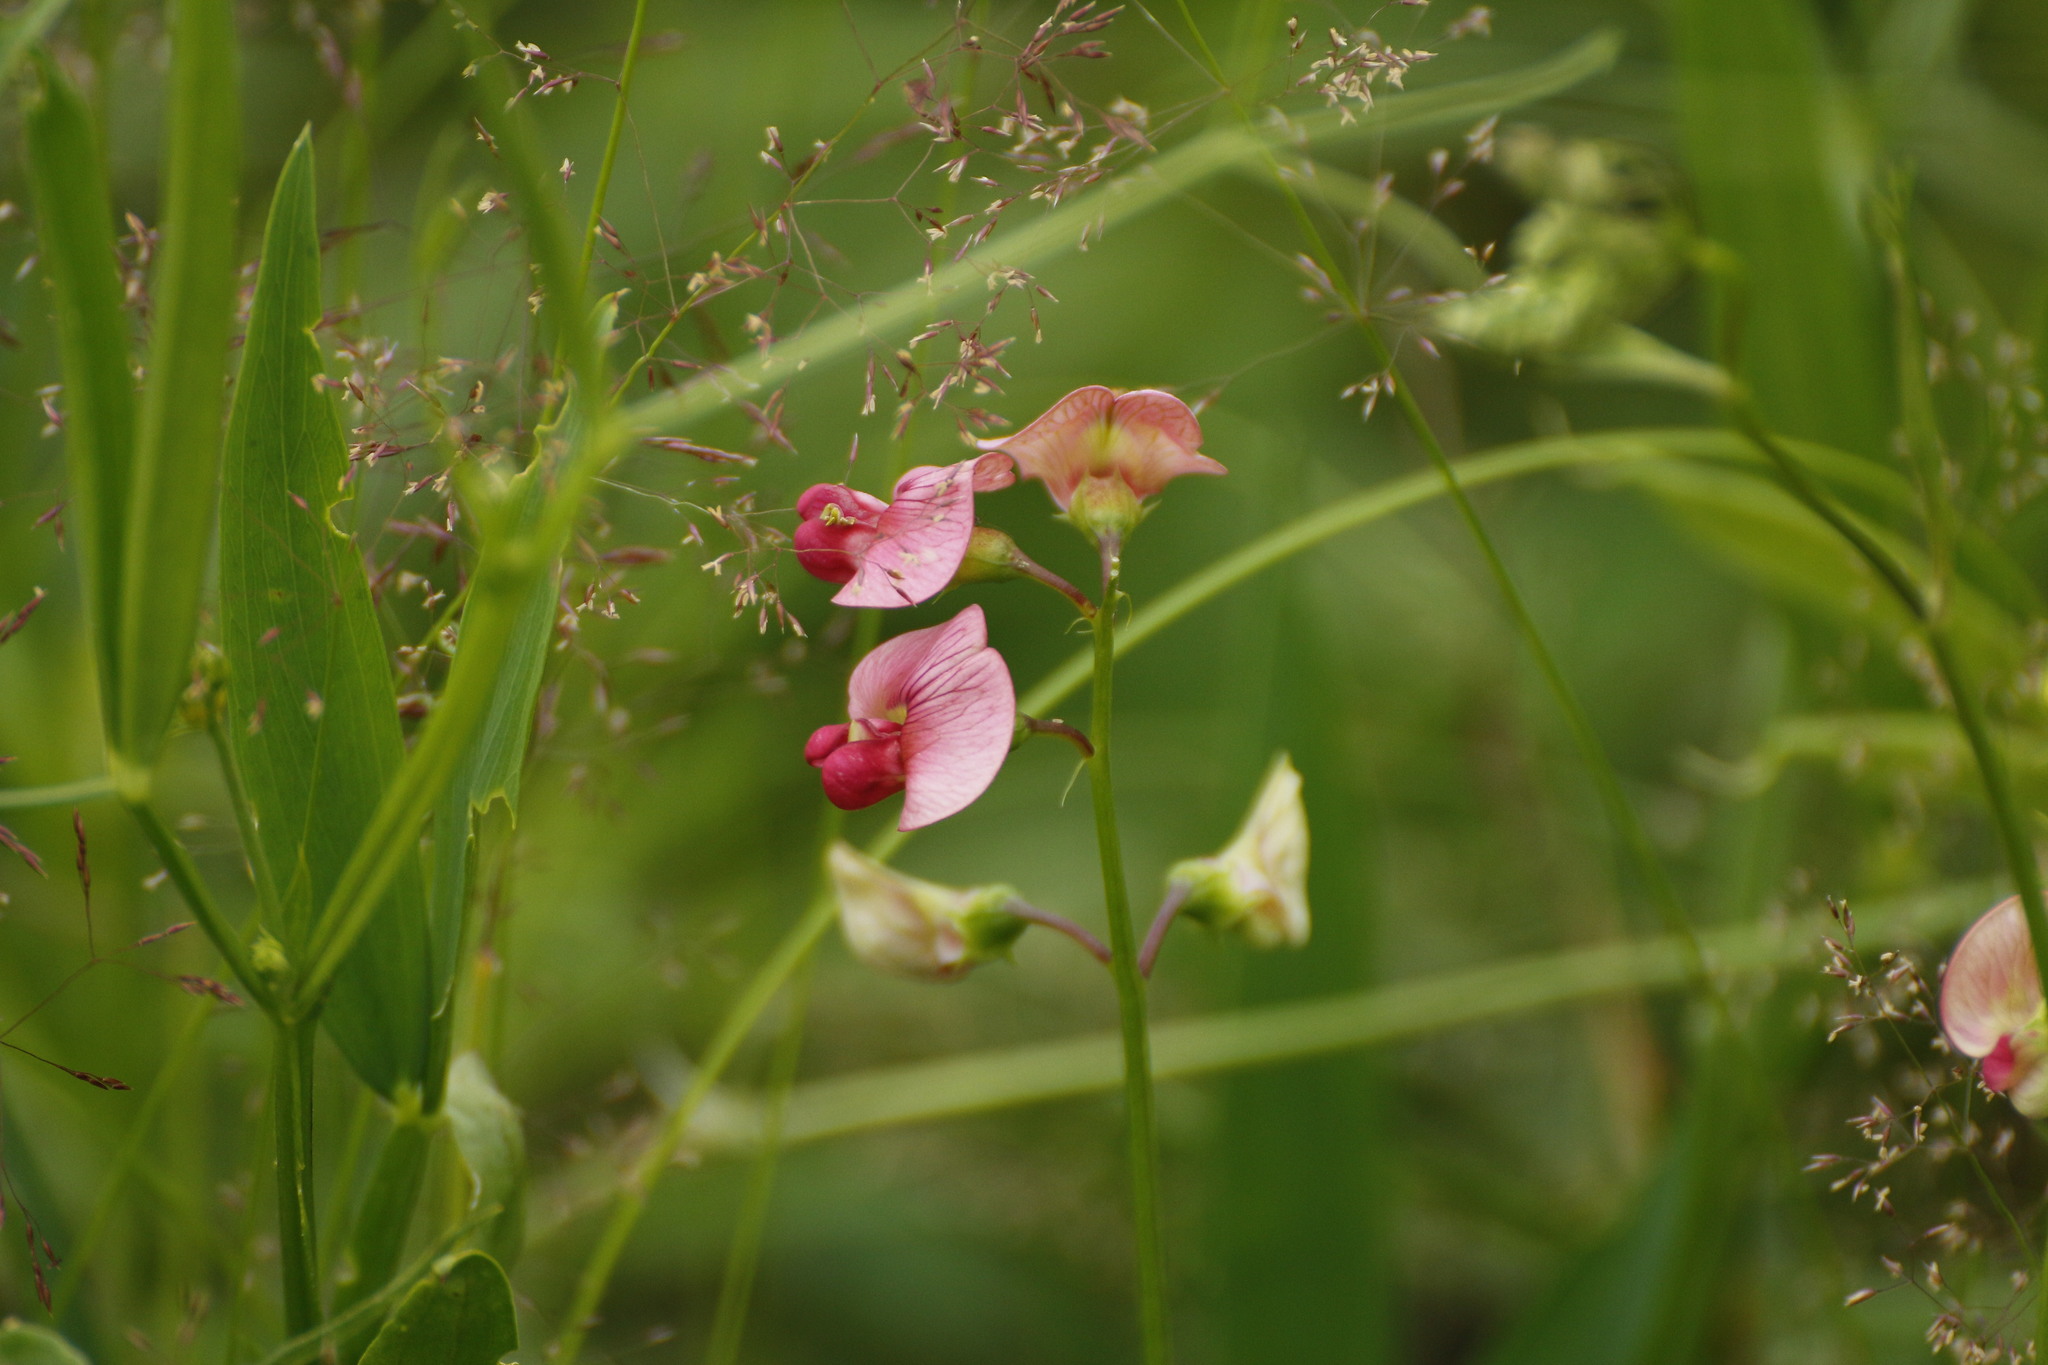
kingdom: Plantae
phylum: Tracheophyta
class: Magnoliopsida
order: Fabales
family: Fabaceae
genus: Lathyrus
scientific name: Lathyrus sylvestris
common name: Flat pea
